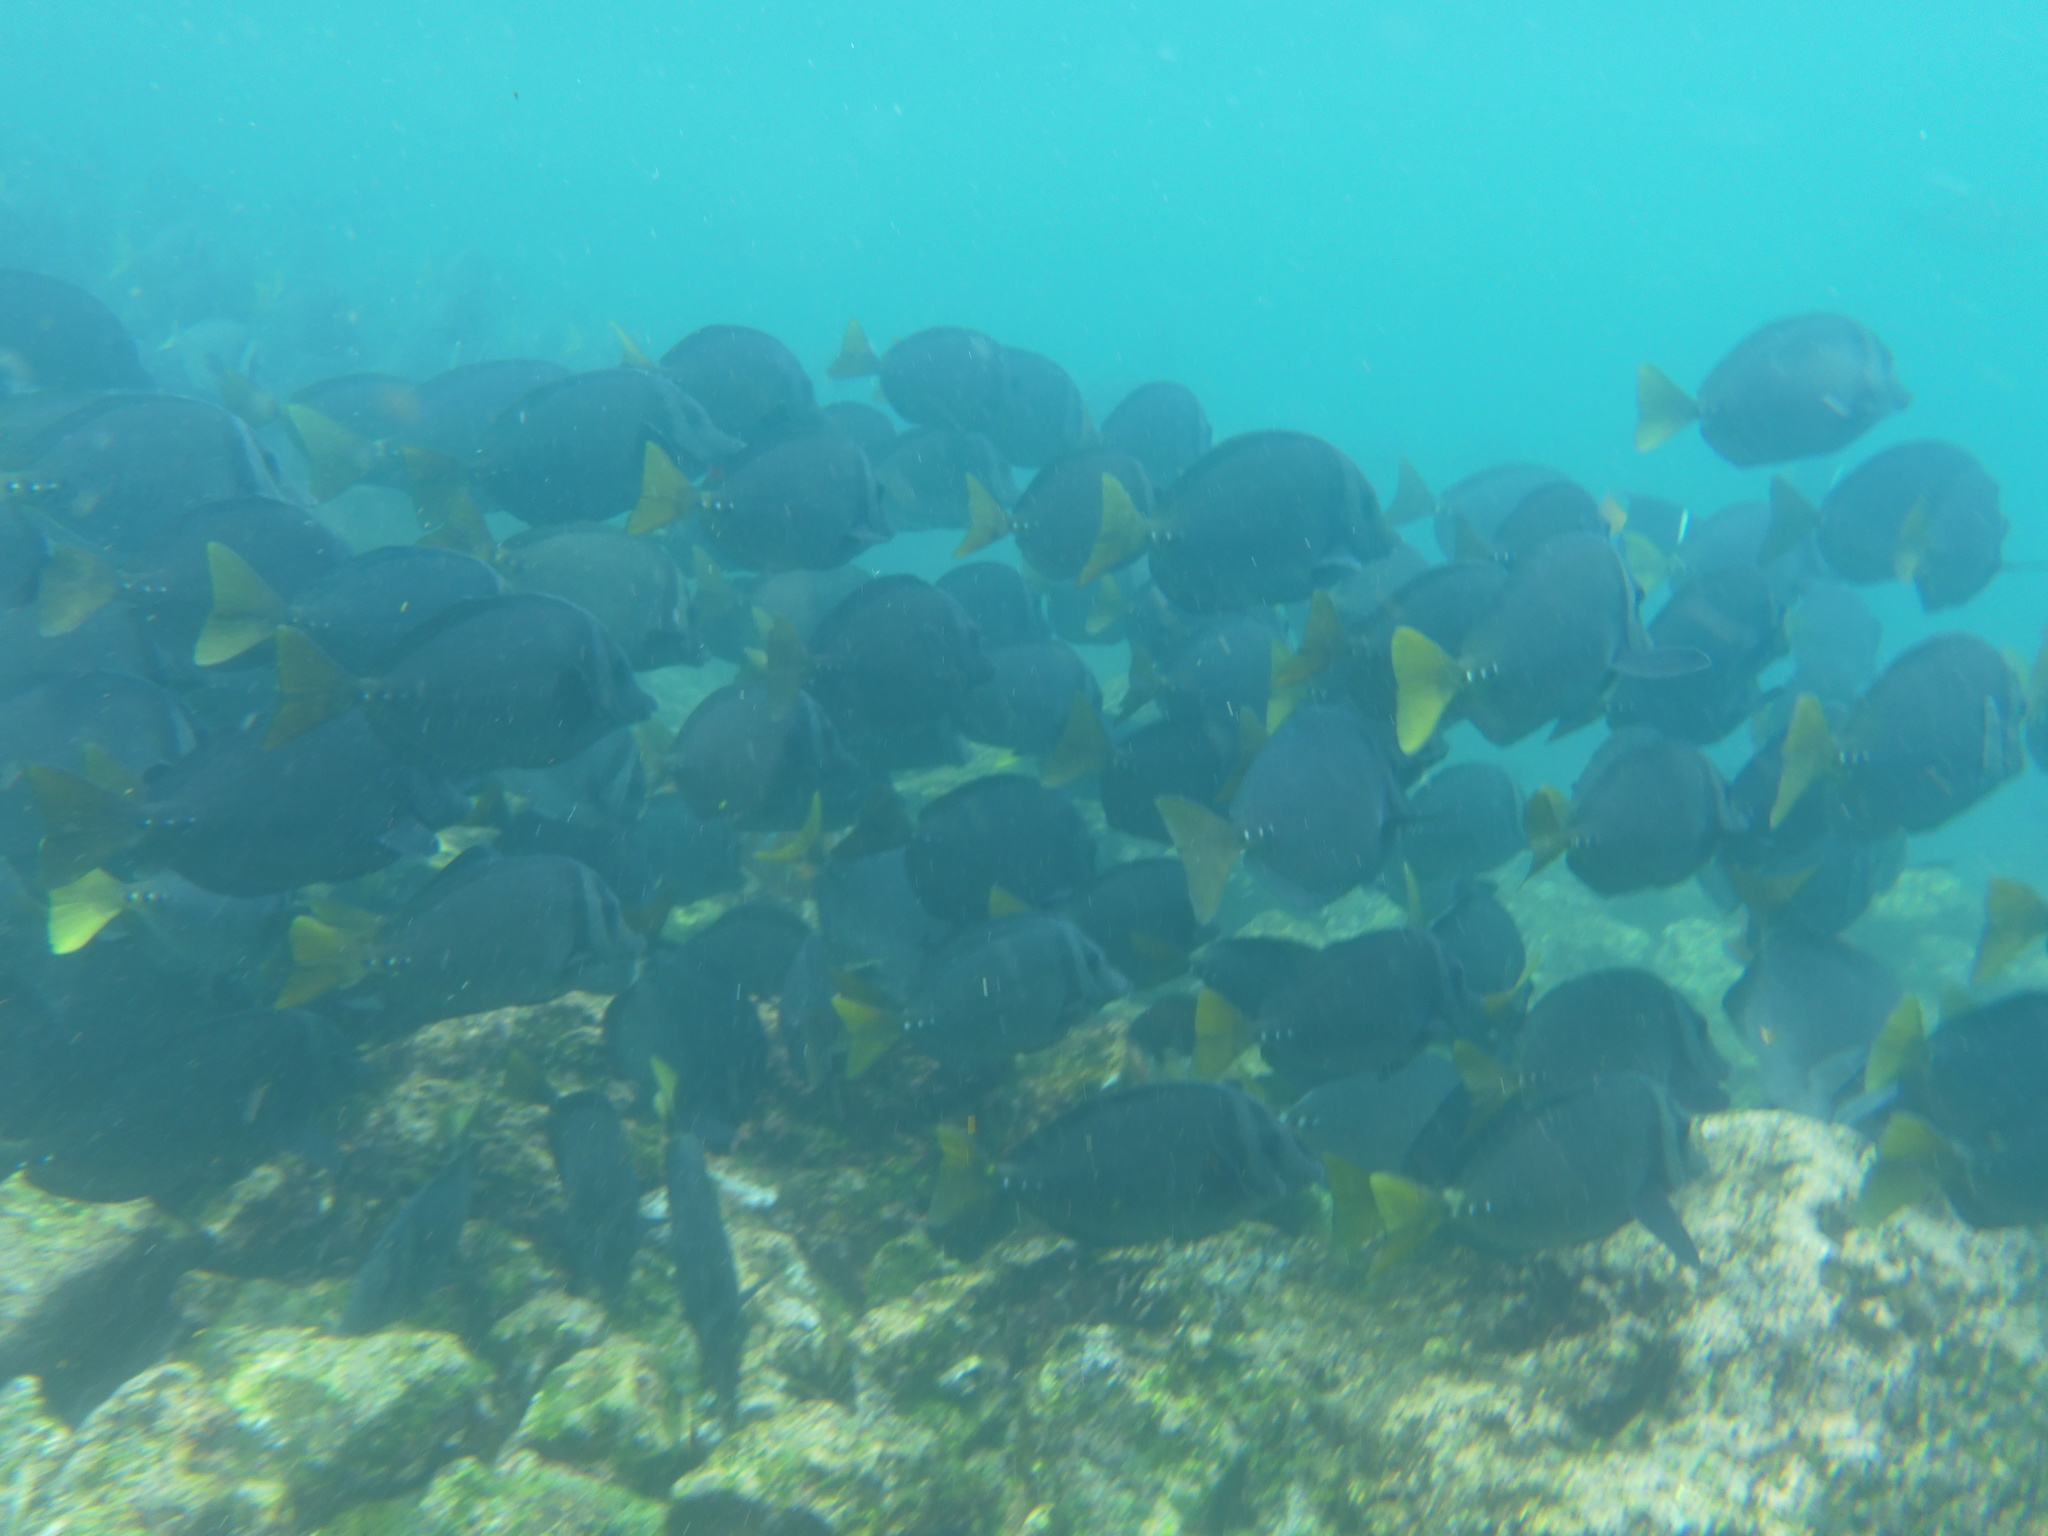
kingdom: Animalia
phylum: Chordata
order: Perciformes
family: Acanthuridae
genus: Prionurus
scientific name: Prionurus laticlavius
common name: Razor surgeonfish
